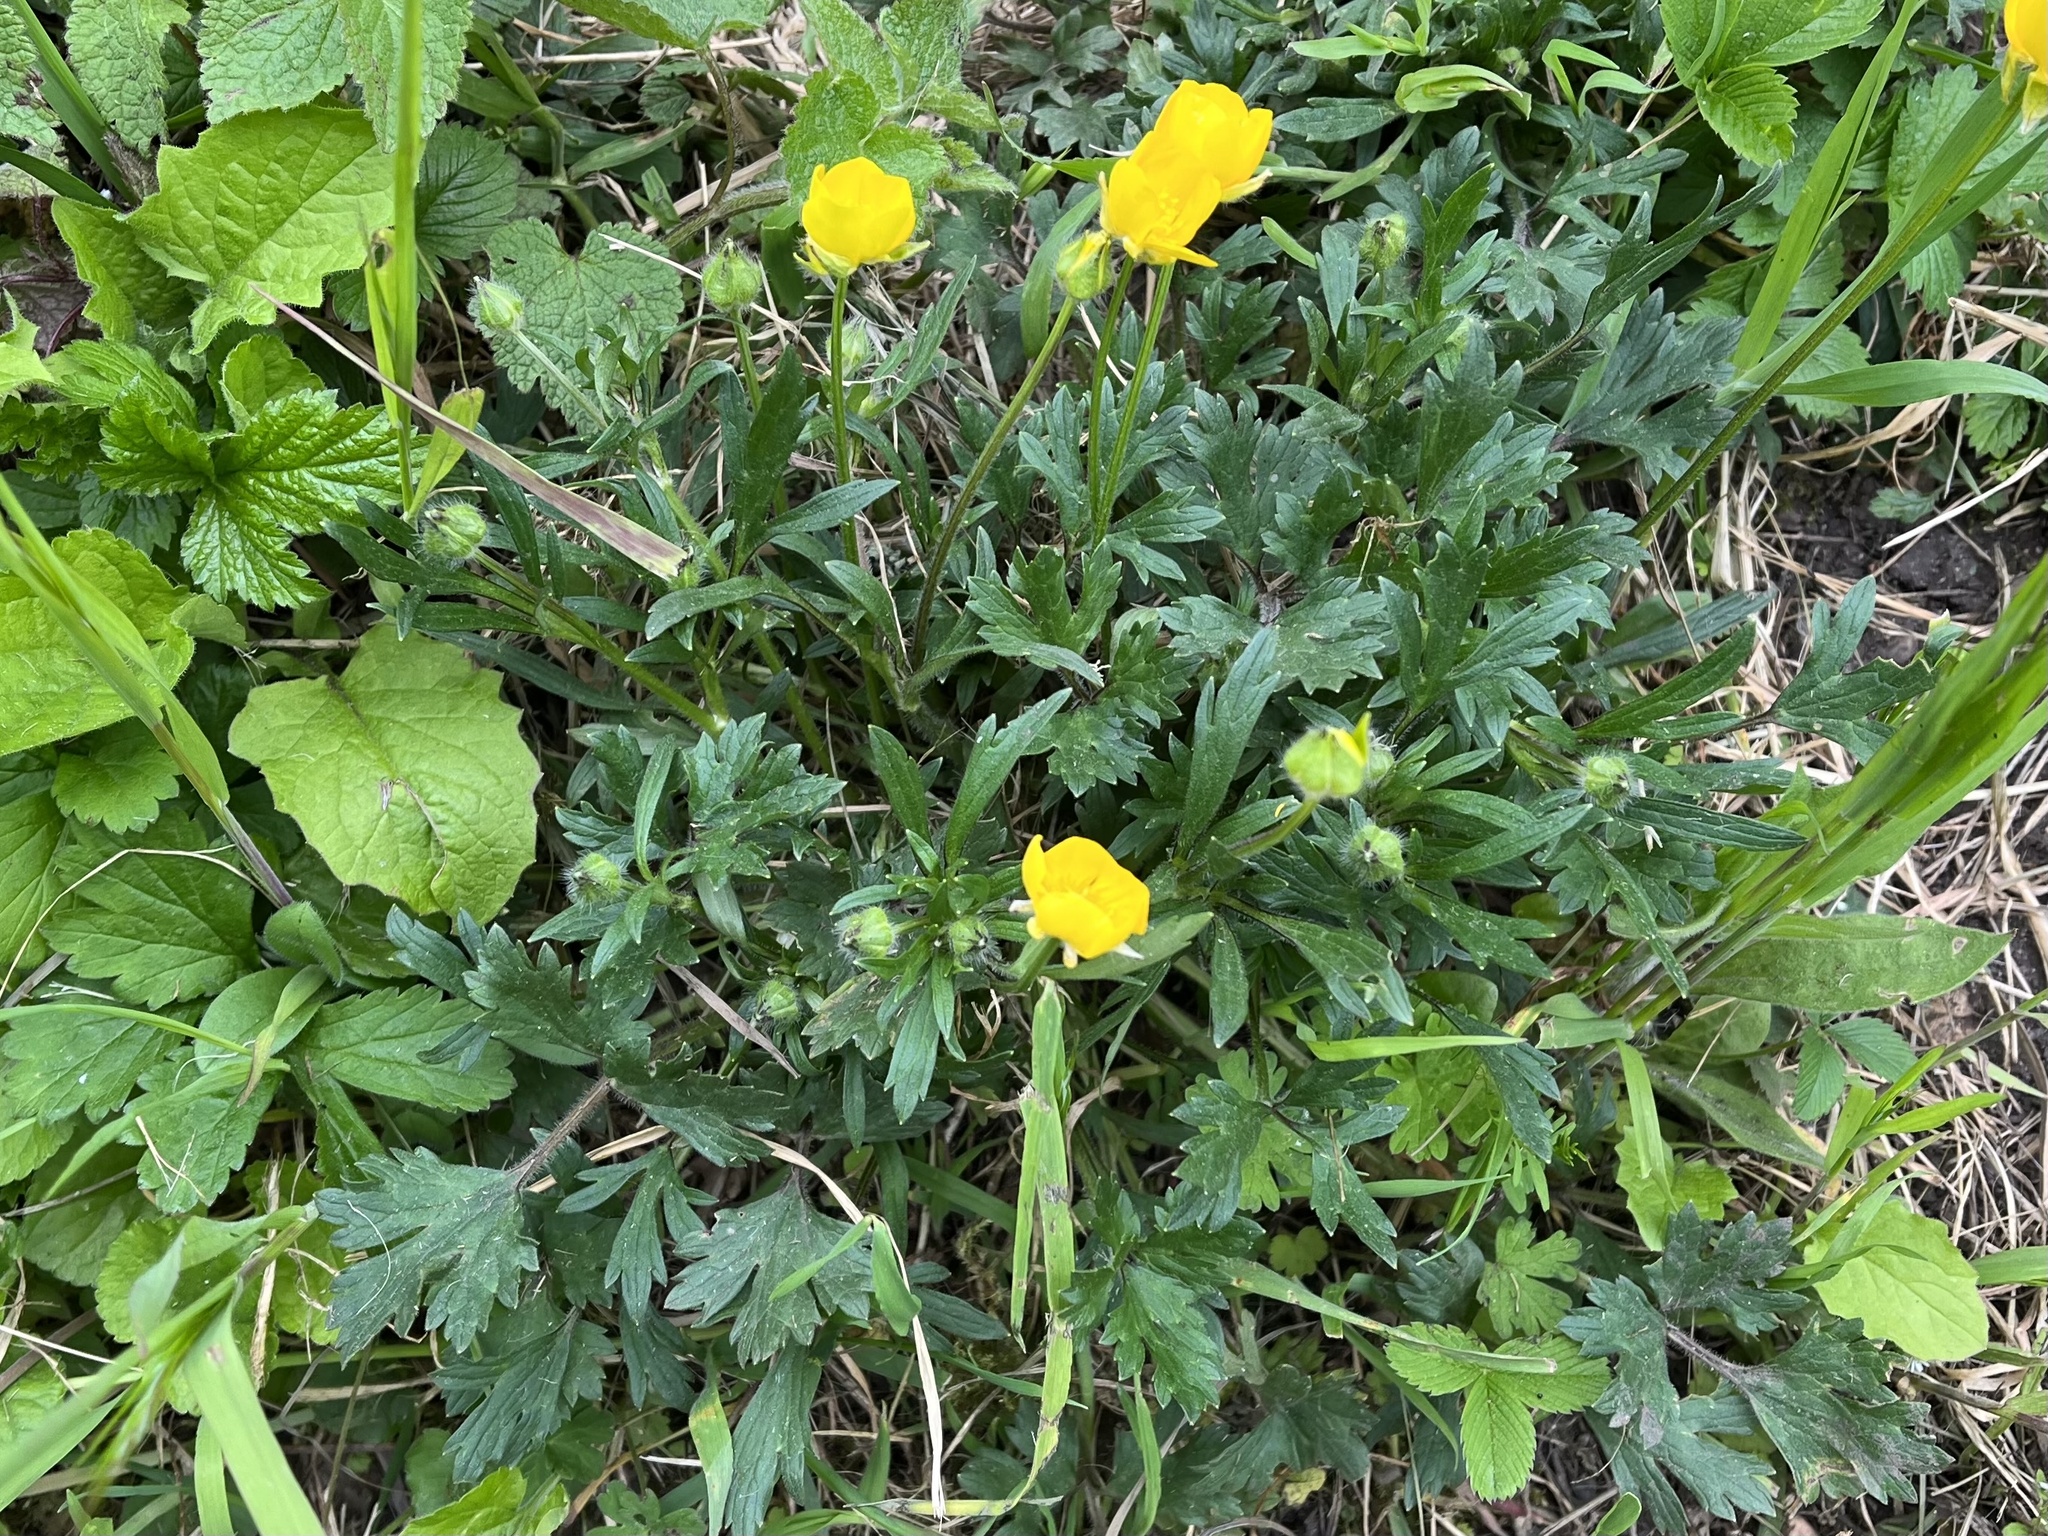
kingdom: Plantae
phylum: Tracheophyta
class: Magnoliopsida
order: Ranunculales
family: Ranunculaceae
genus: Ranunculus
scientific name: Ranunculus bulbosus
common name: Bulbous buttercup
